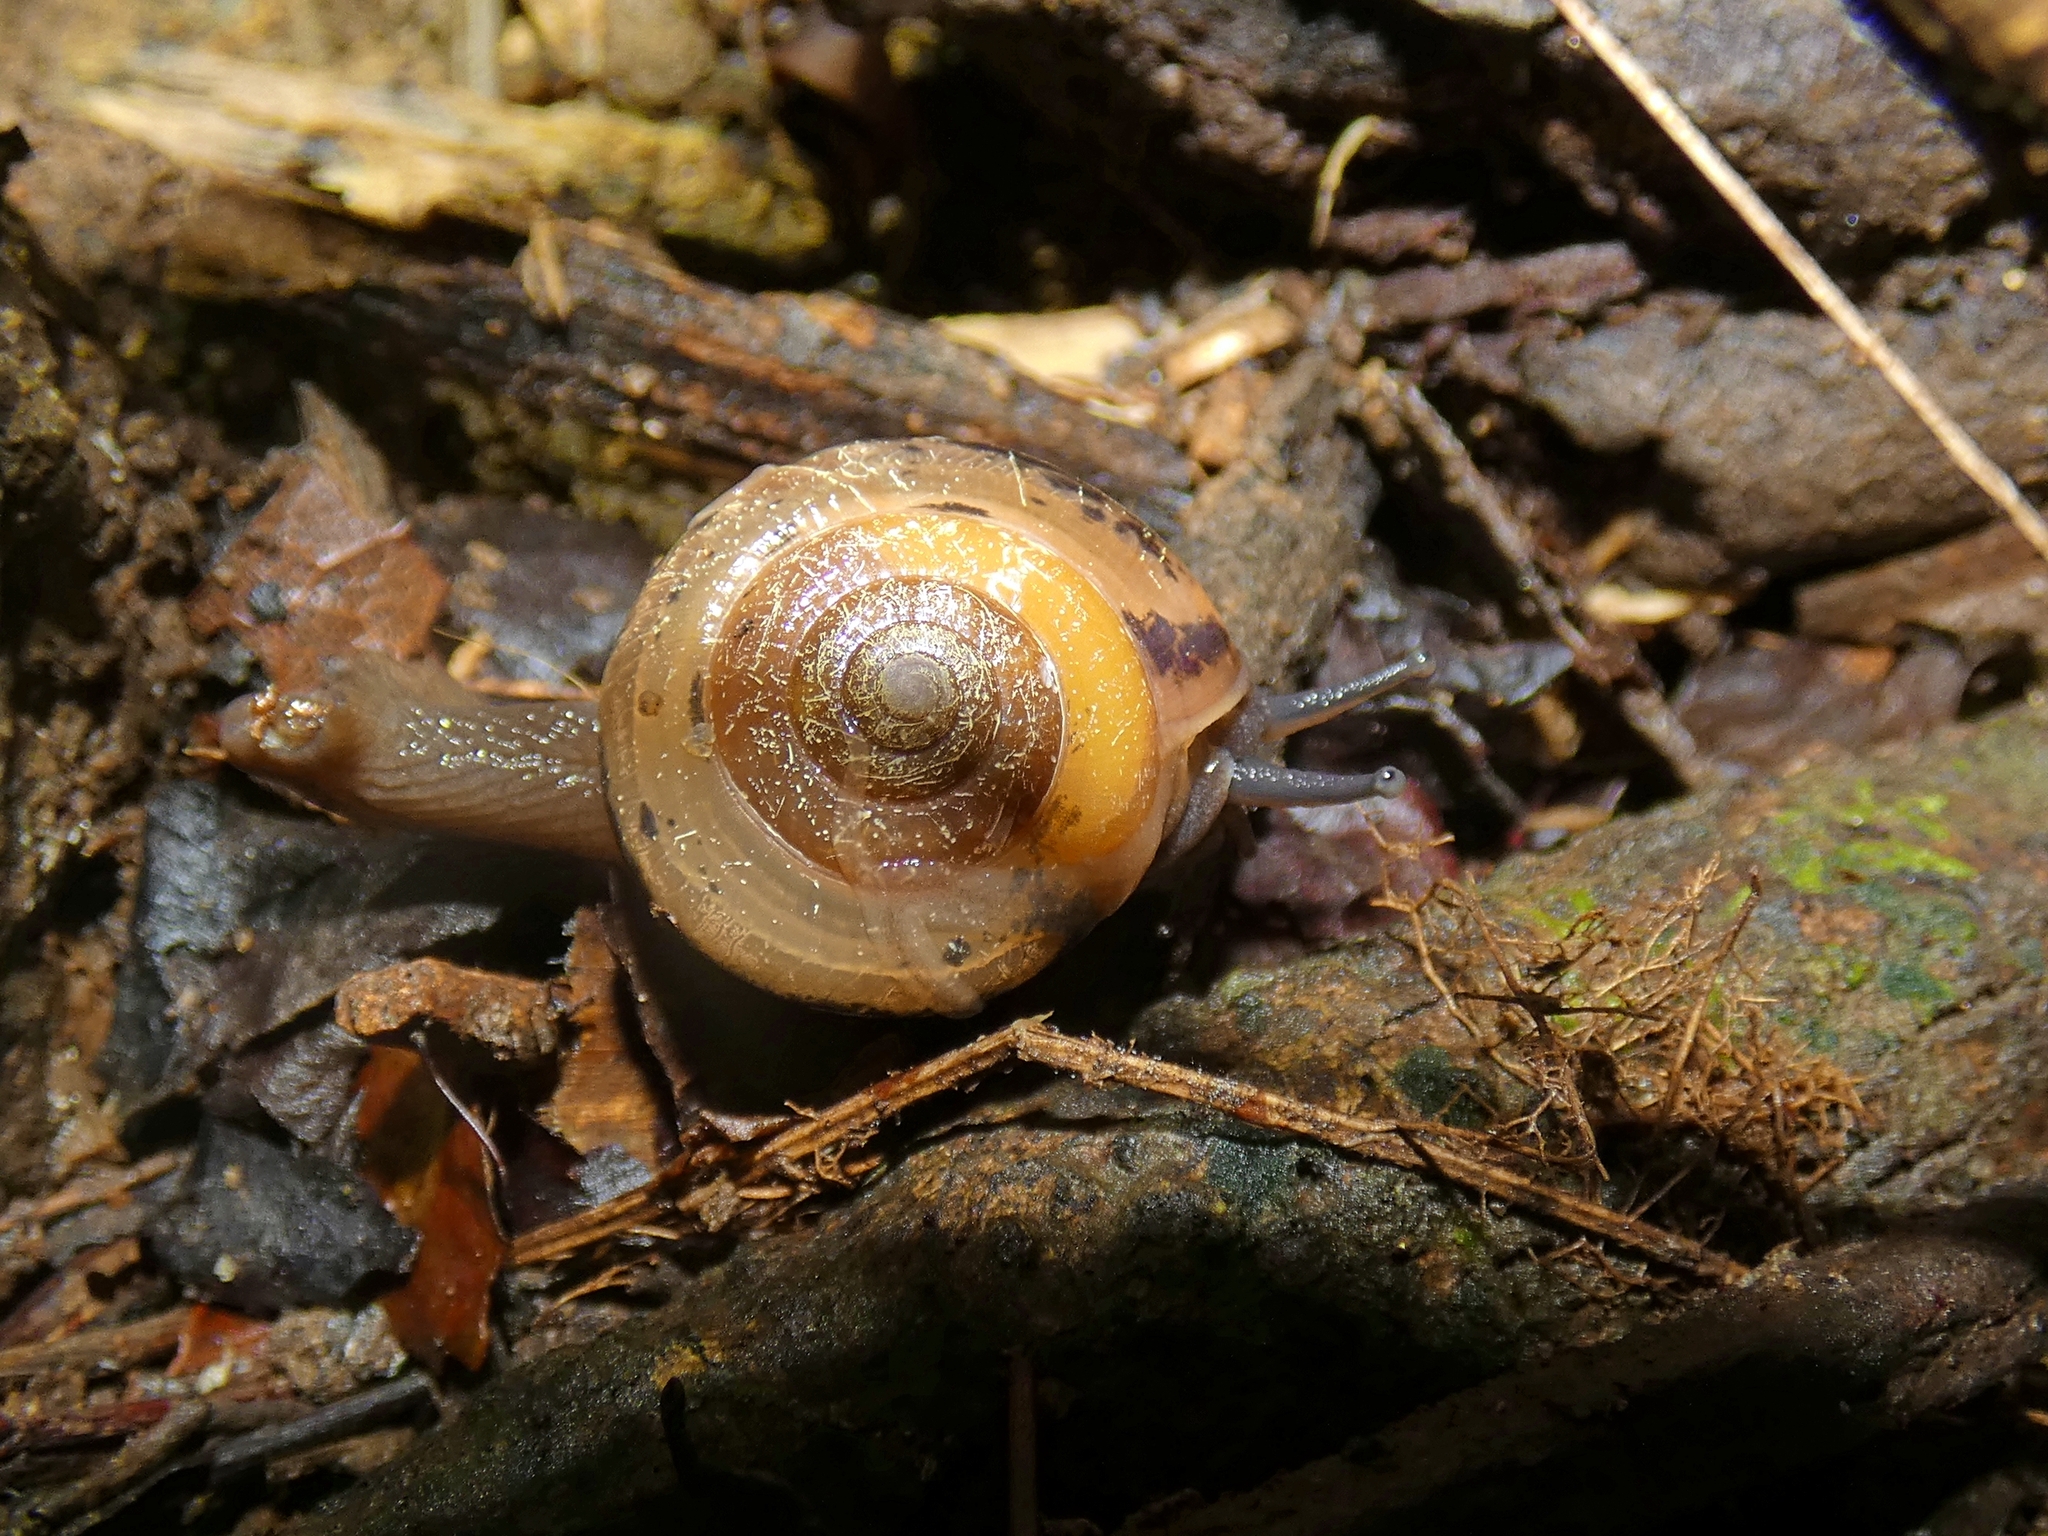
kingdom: Animalia
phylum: Mollusca
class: Gastropoda
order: Stylommatophora
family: Helicarionidae
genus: Pravonitor
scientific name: Pravonitor aquilonius
